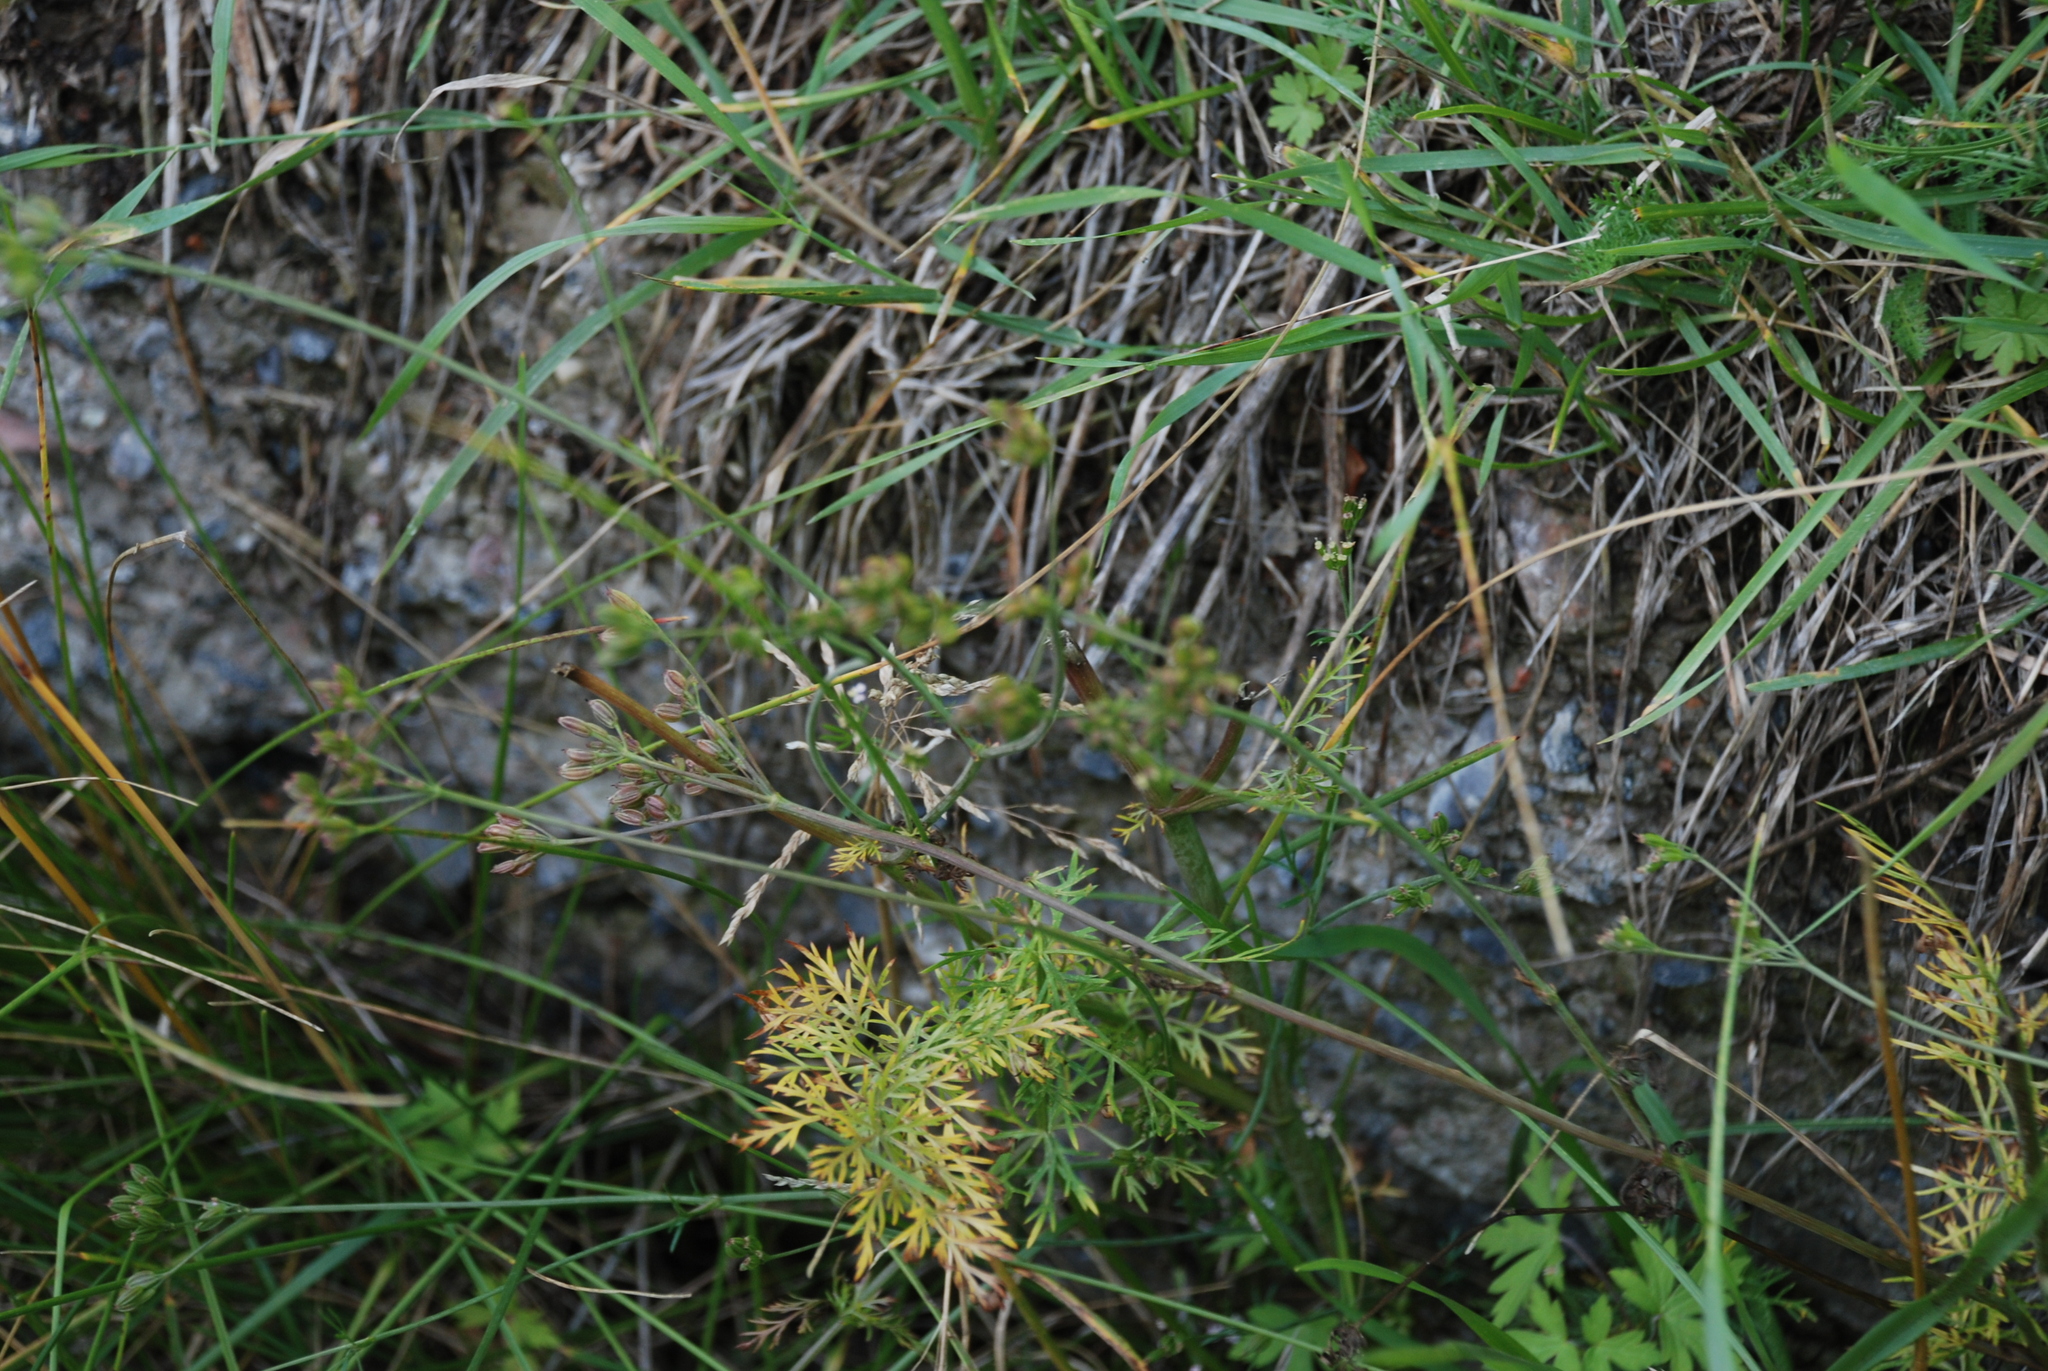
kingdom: Plantae
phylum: Tracheophyta
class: Magnoliopsida
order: Apiales
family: Apiaceae
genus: Carum
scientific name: Carum carvi
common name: Caraway
